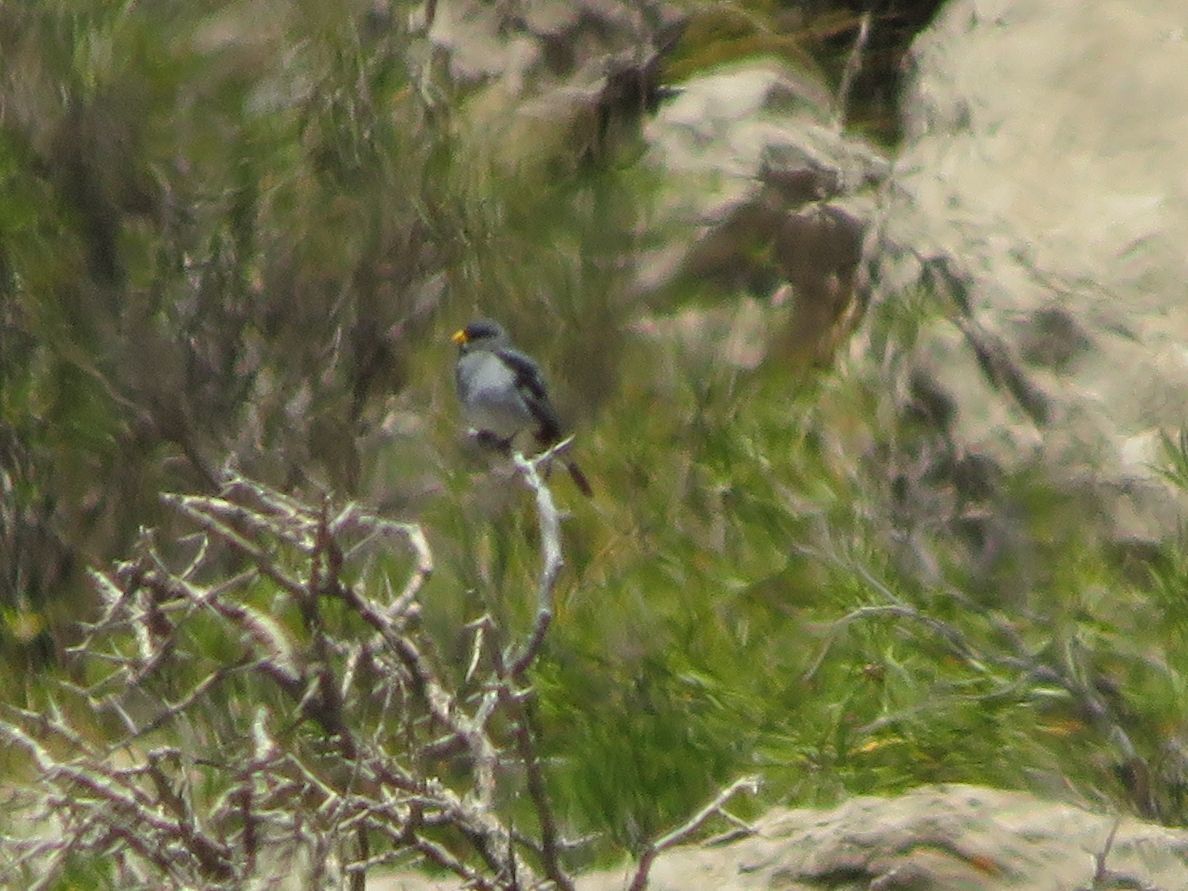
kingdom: Animalia
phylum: Chordata
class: Aves
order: Passeriformes
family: Thraupidae
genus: Catamenia
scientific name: Catamenia analis
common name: Band-tailed seedeater
